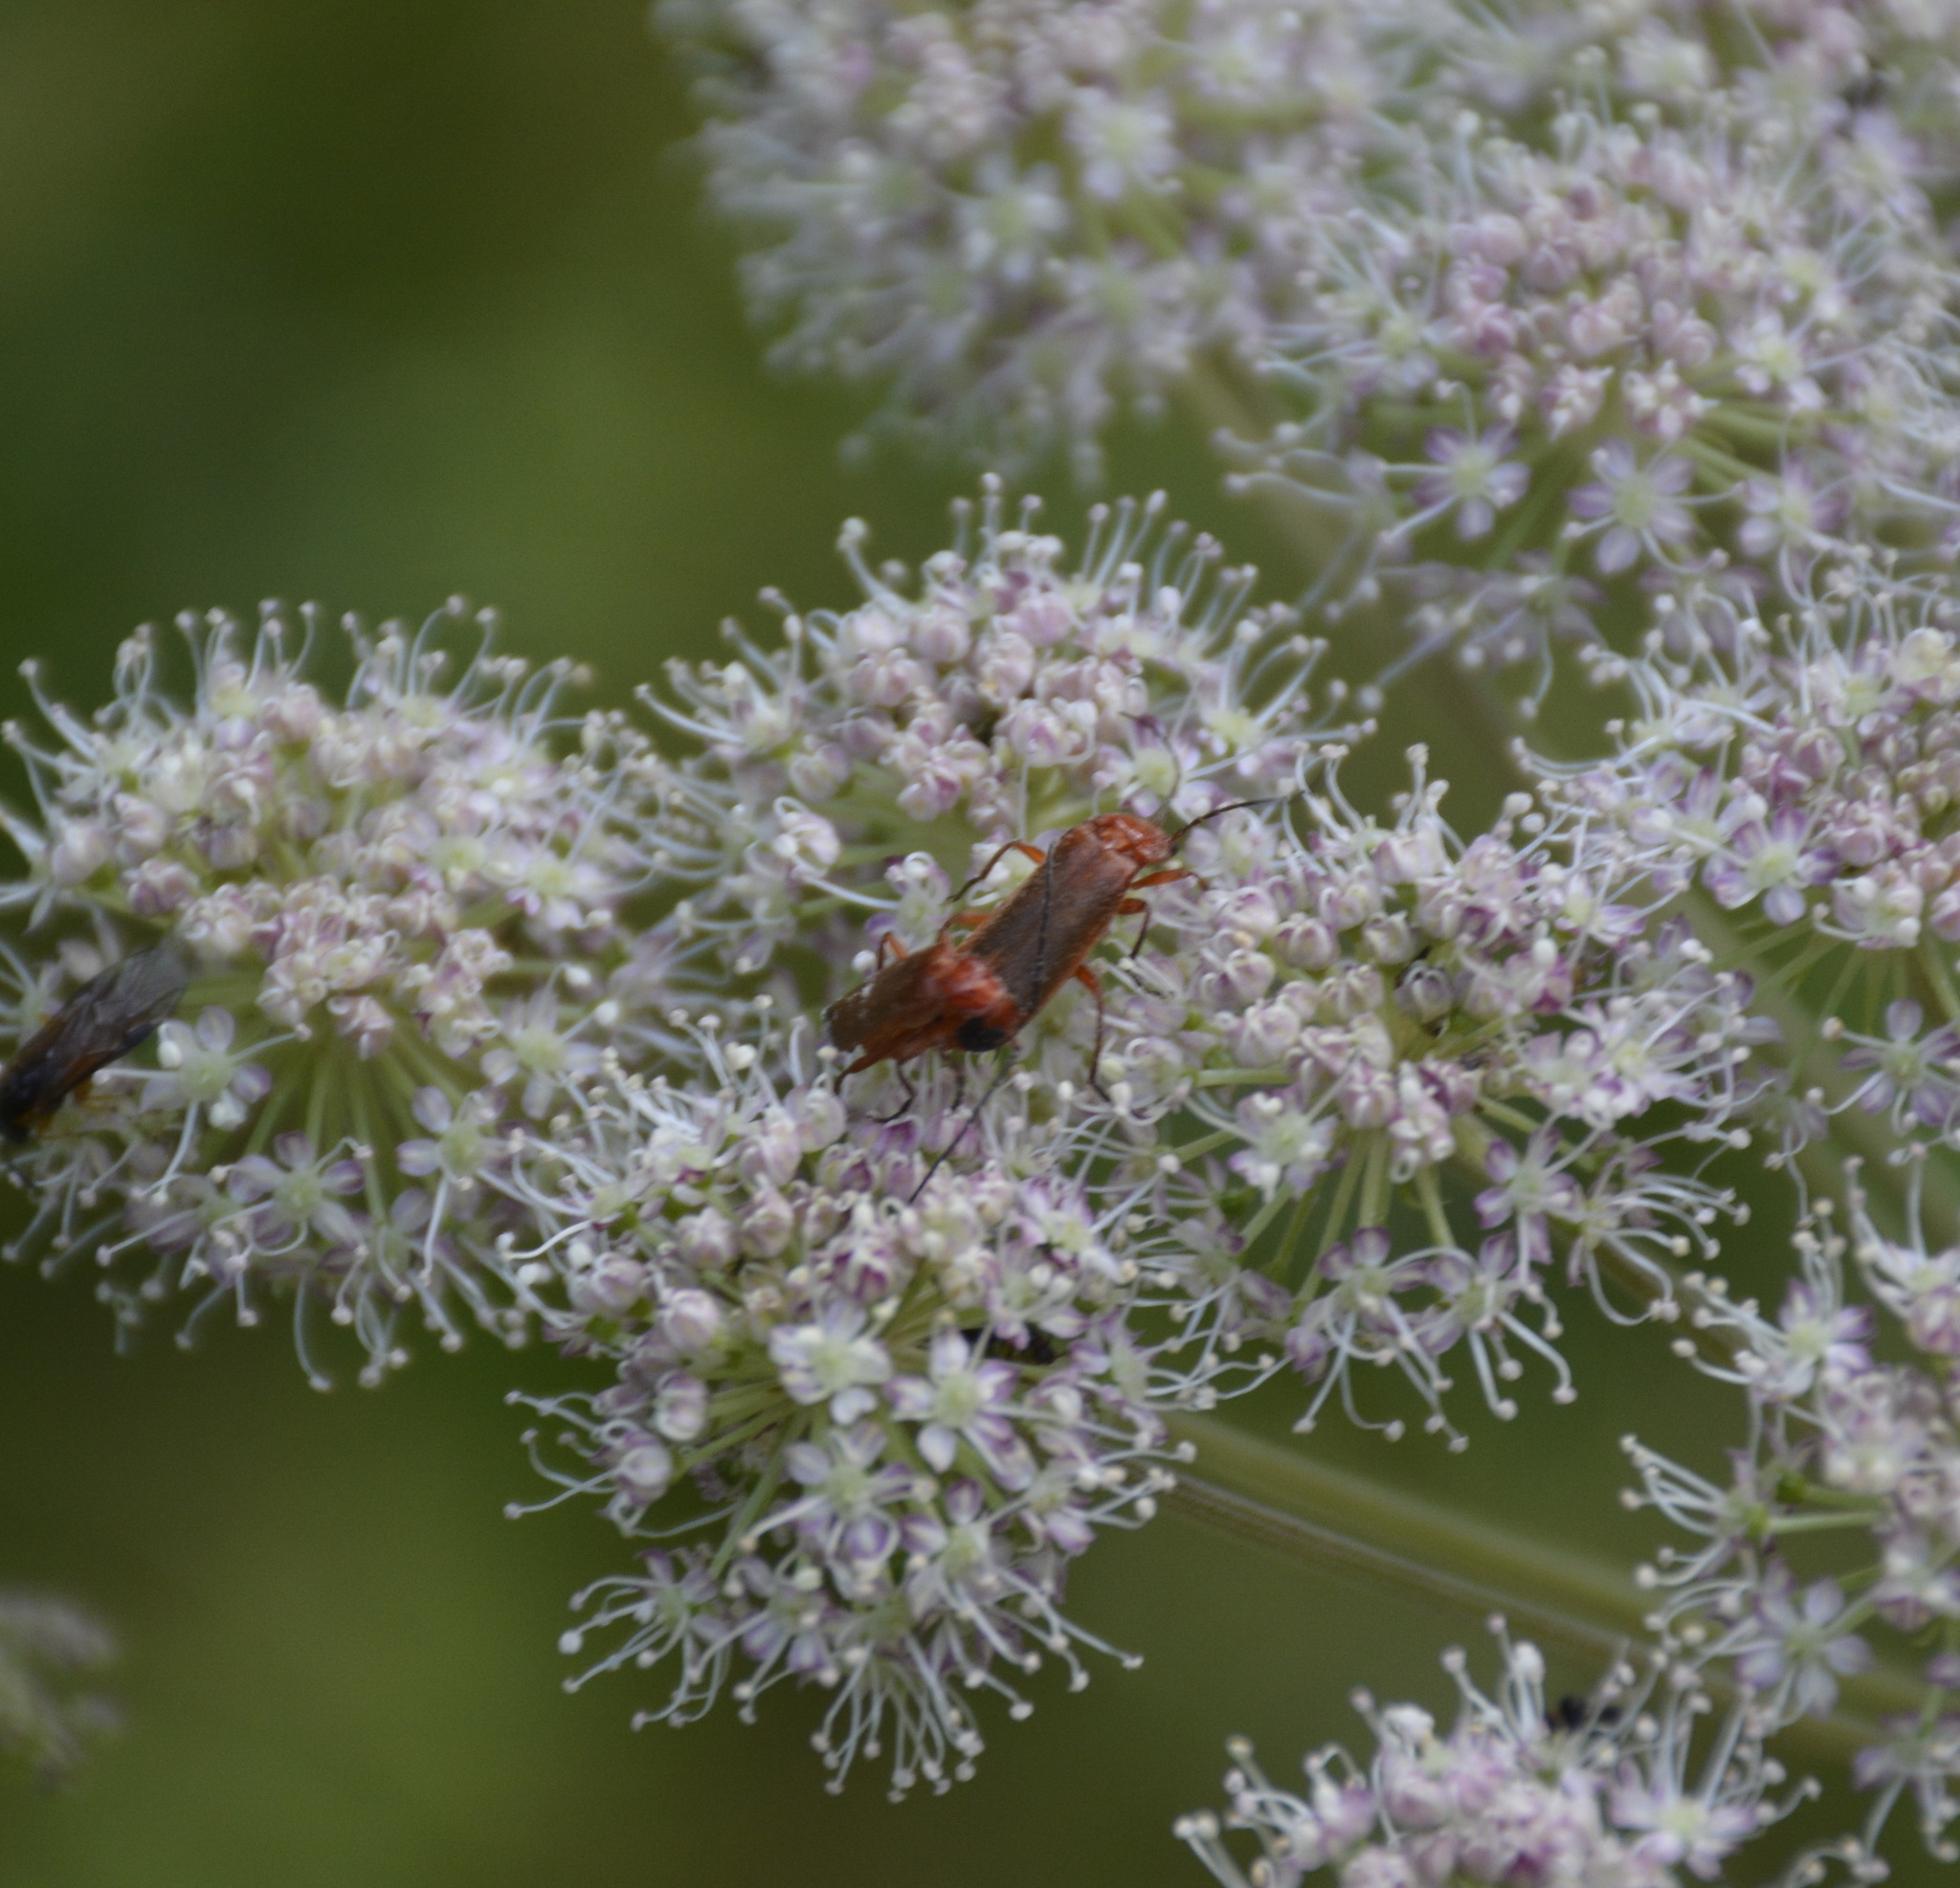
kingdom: Animalia
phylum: Arthropoda
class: Insecta
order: Coleoptera
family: Cantharidae
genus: Rhagonycha
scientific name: Rhagonycha fulva
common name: Common red soldier beetle
